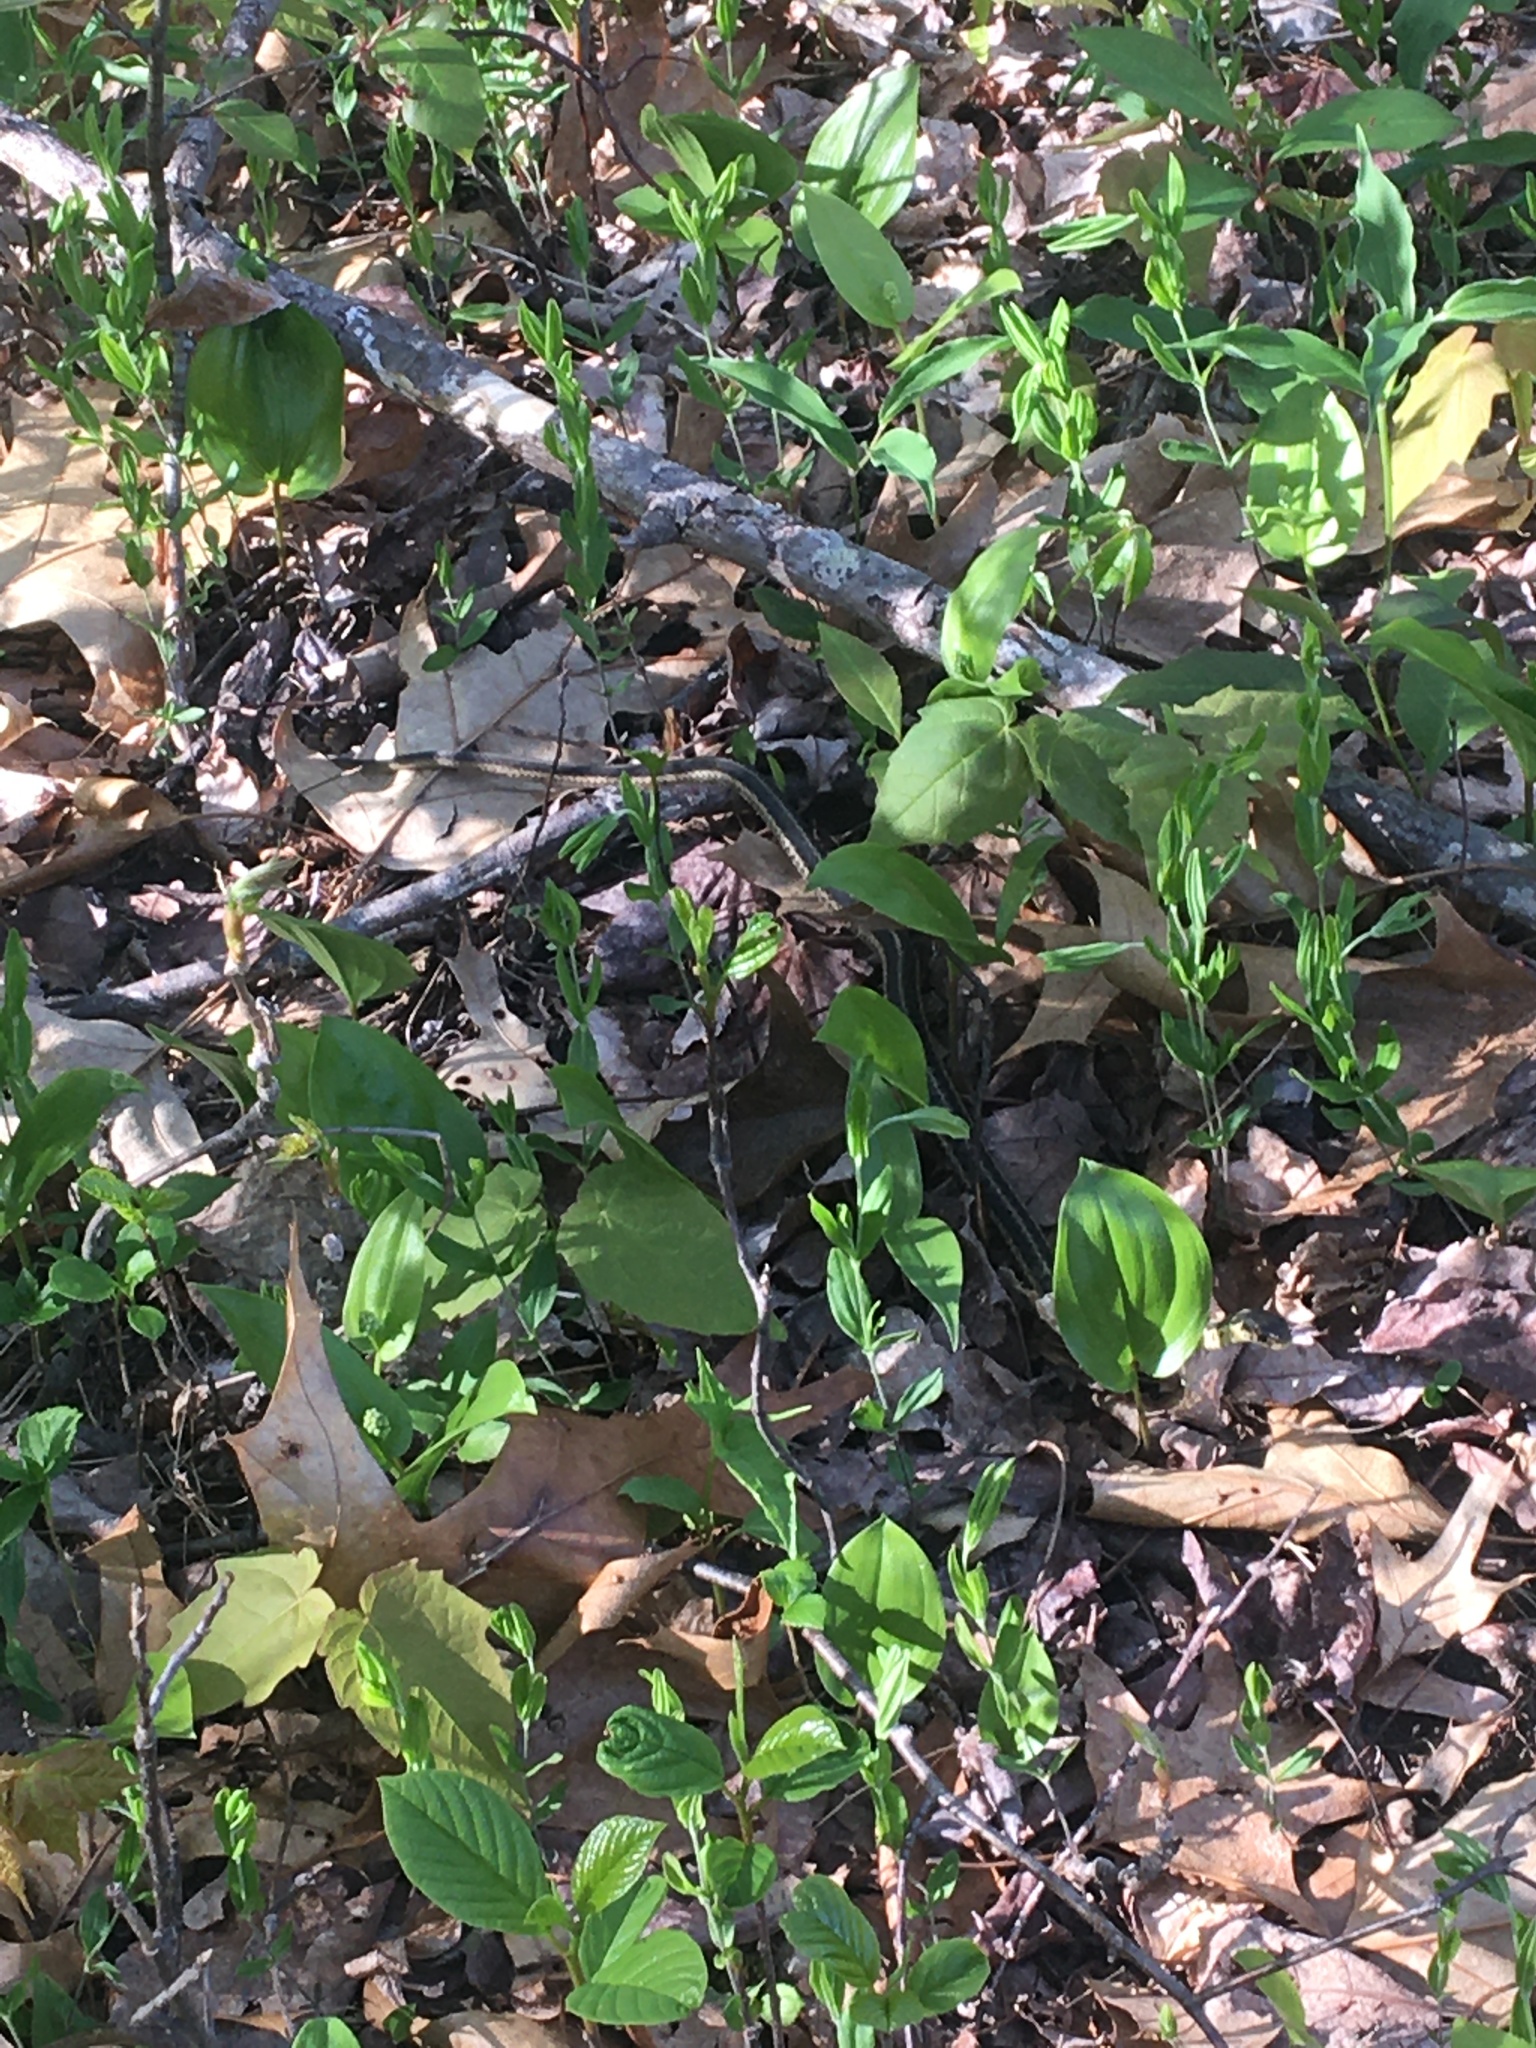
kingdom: Animalia
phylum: Chordata
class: Squamata
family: Colubridae
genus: Thamnophis
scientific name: Thamnophis sirtalis
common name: Common garter snake
